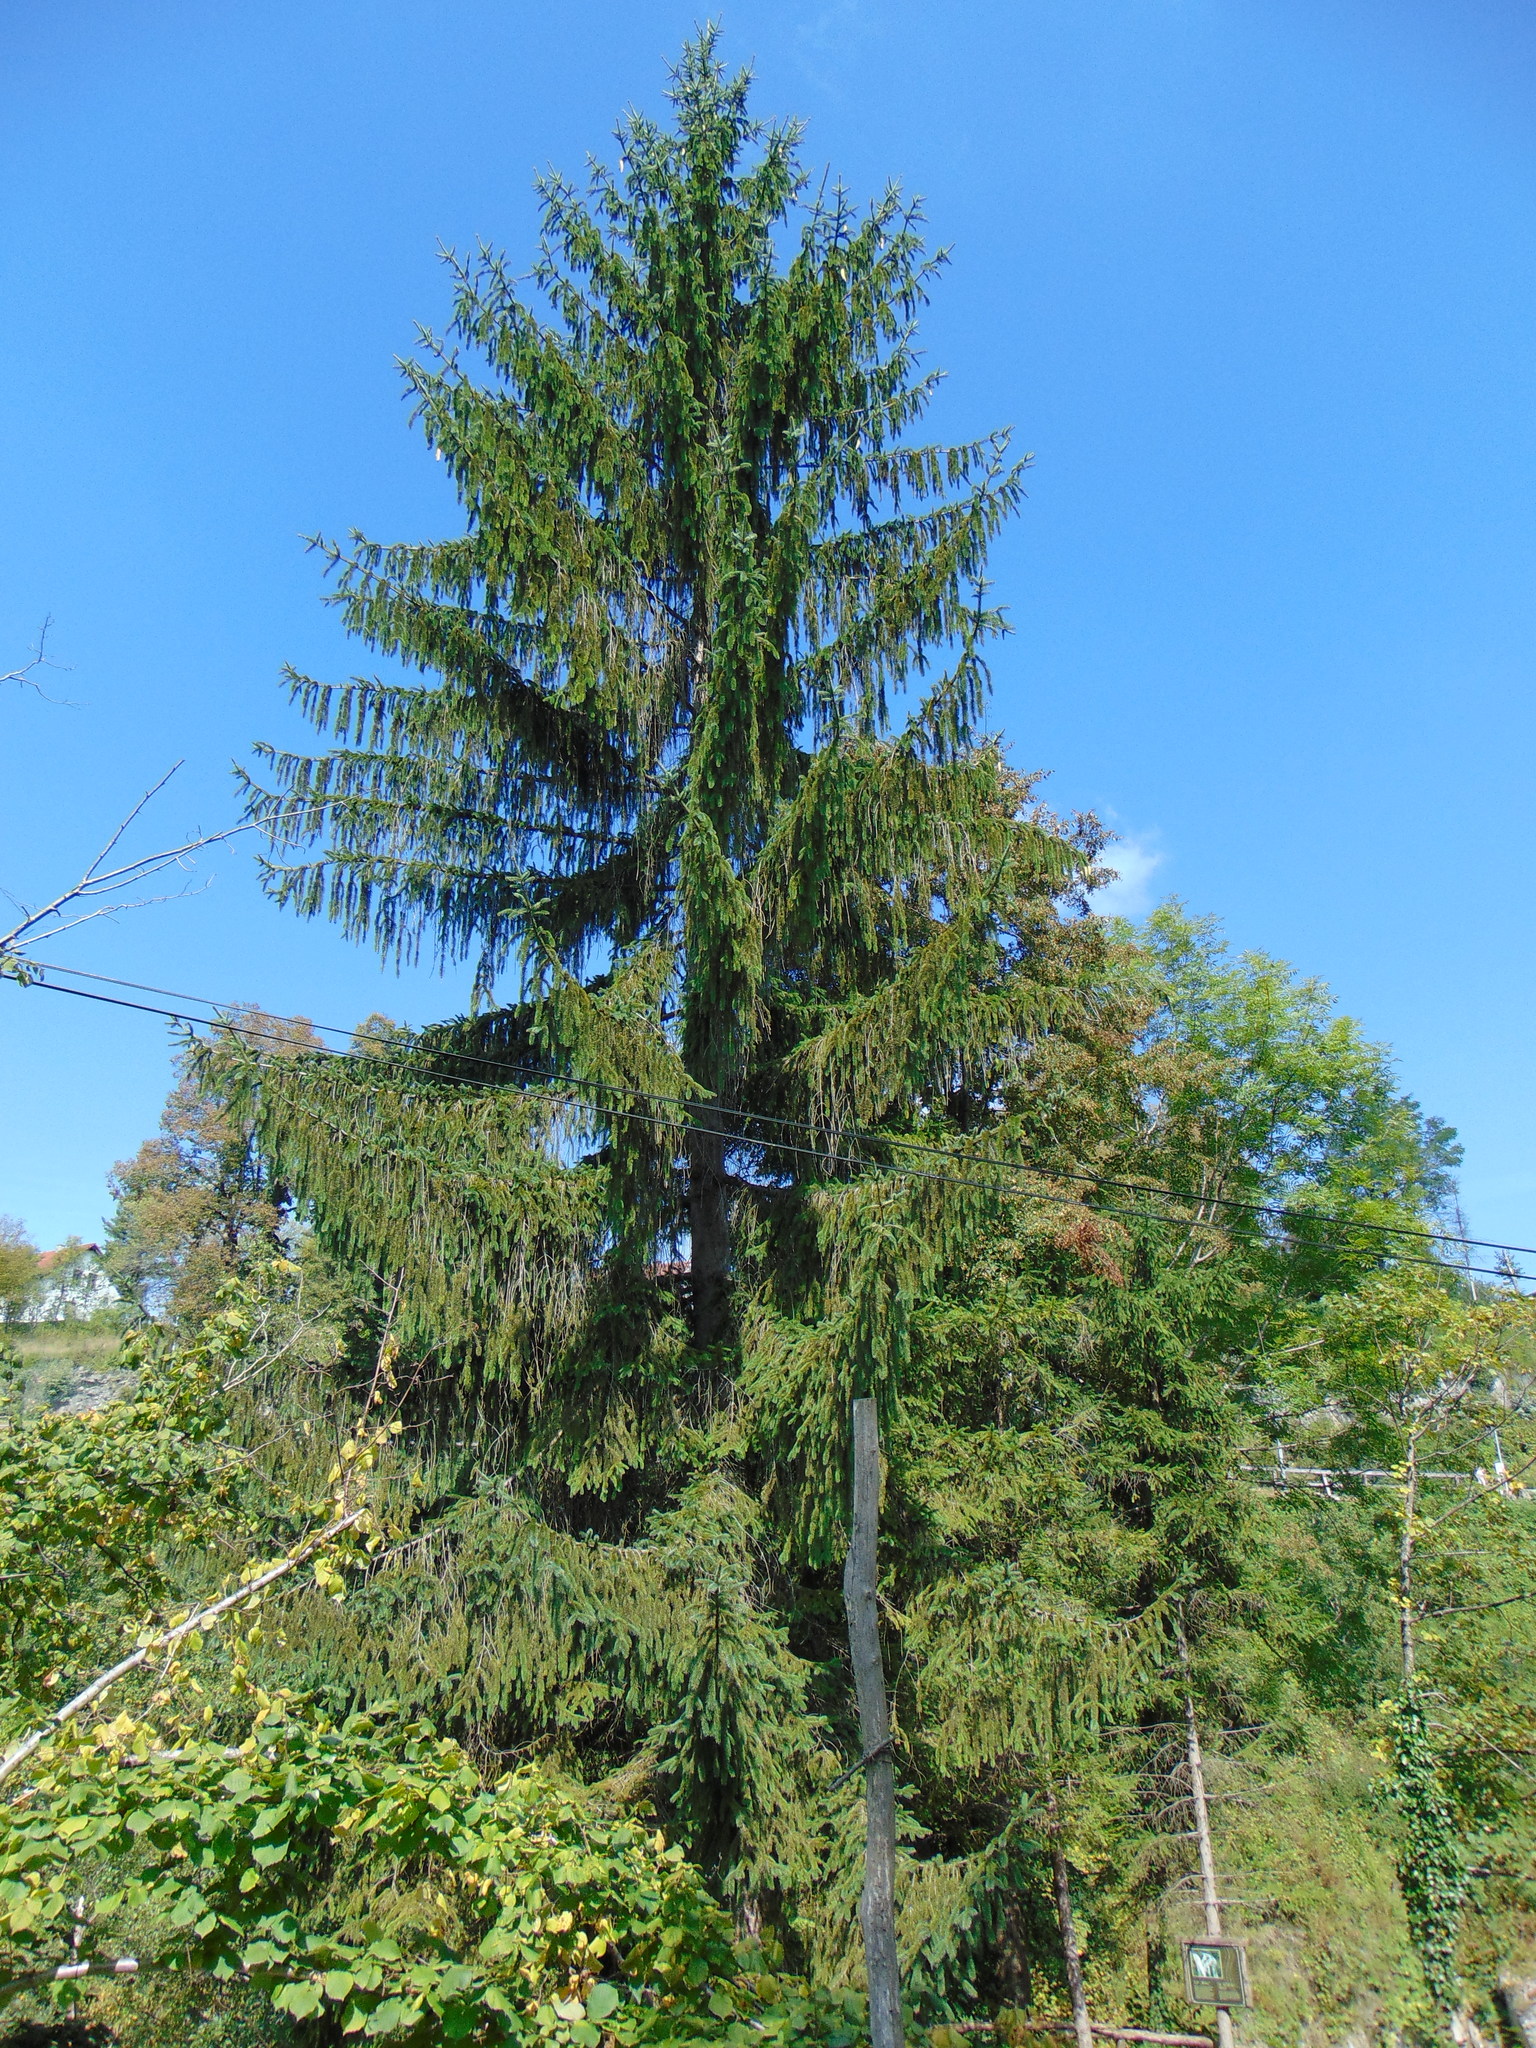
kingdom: Plantae
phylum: Tracheophyta
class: Pinopsida
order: Pinales
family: Pinaceae
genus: Picea
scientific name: Picea abies
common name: Norway spruce
